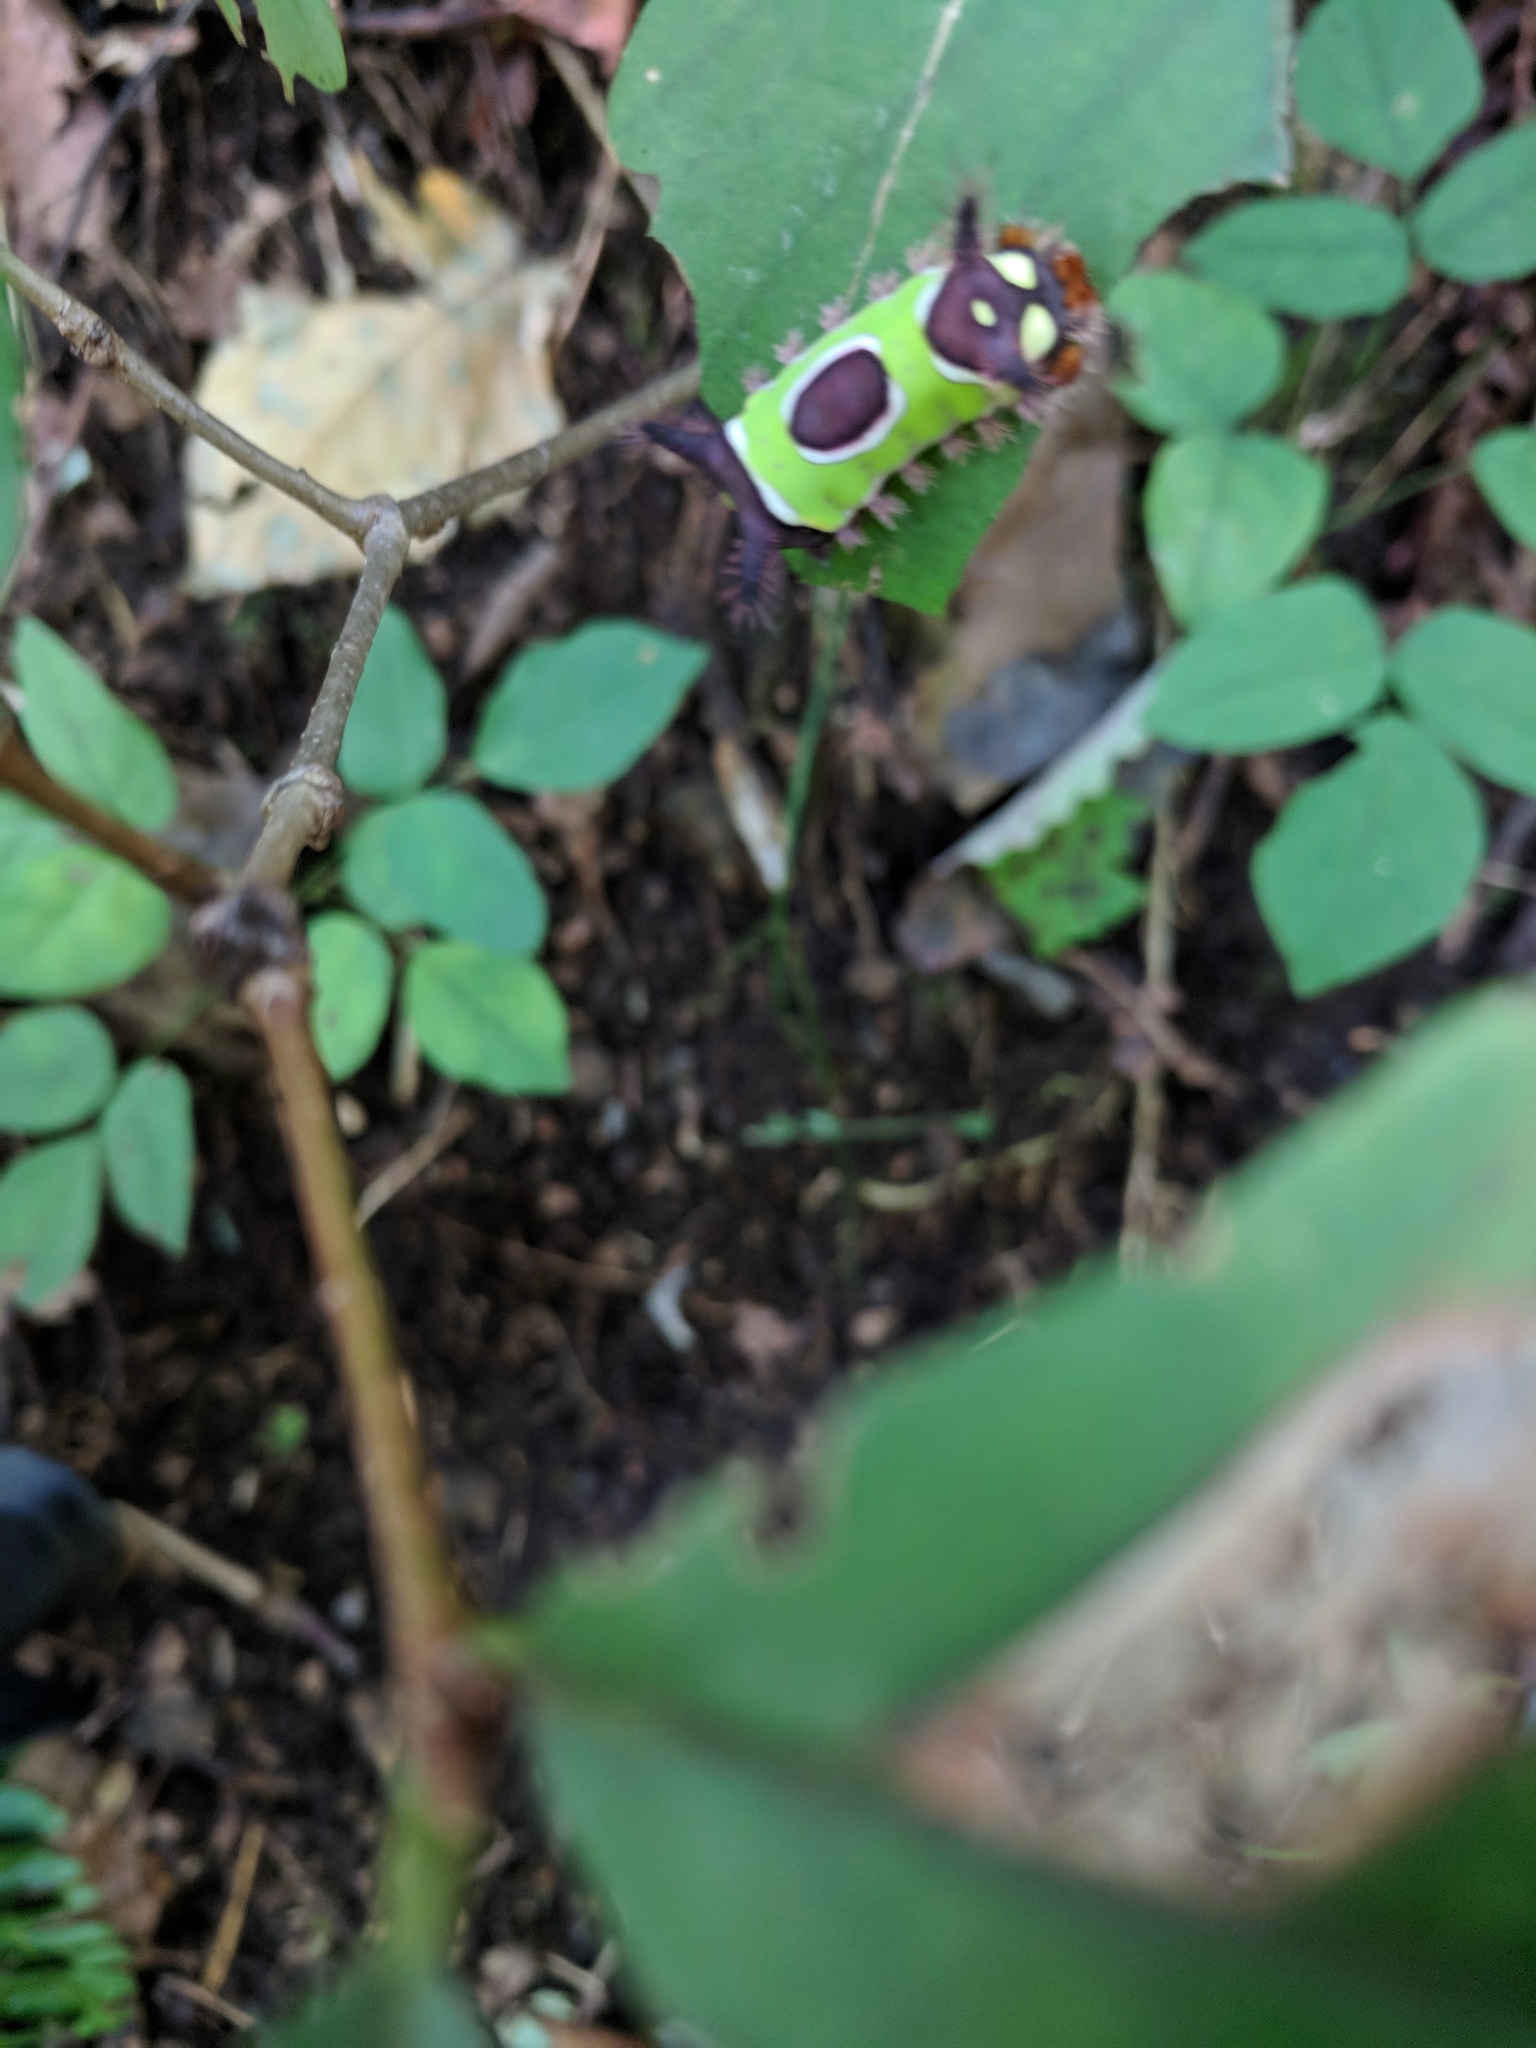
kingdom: Animalia
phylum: Arthropoda
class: Insecta
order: Lepidoptera
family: Limacodidae
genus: Acharia
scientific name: Acharia stimulea
